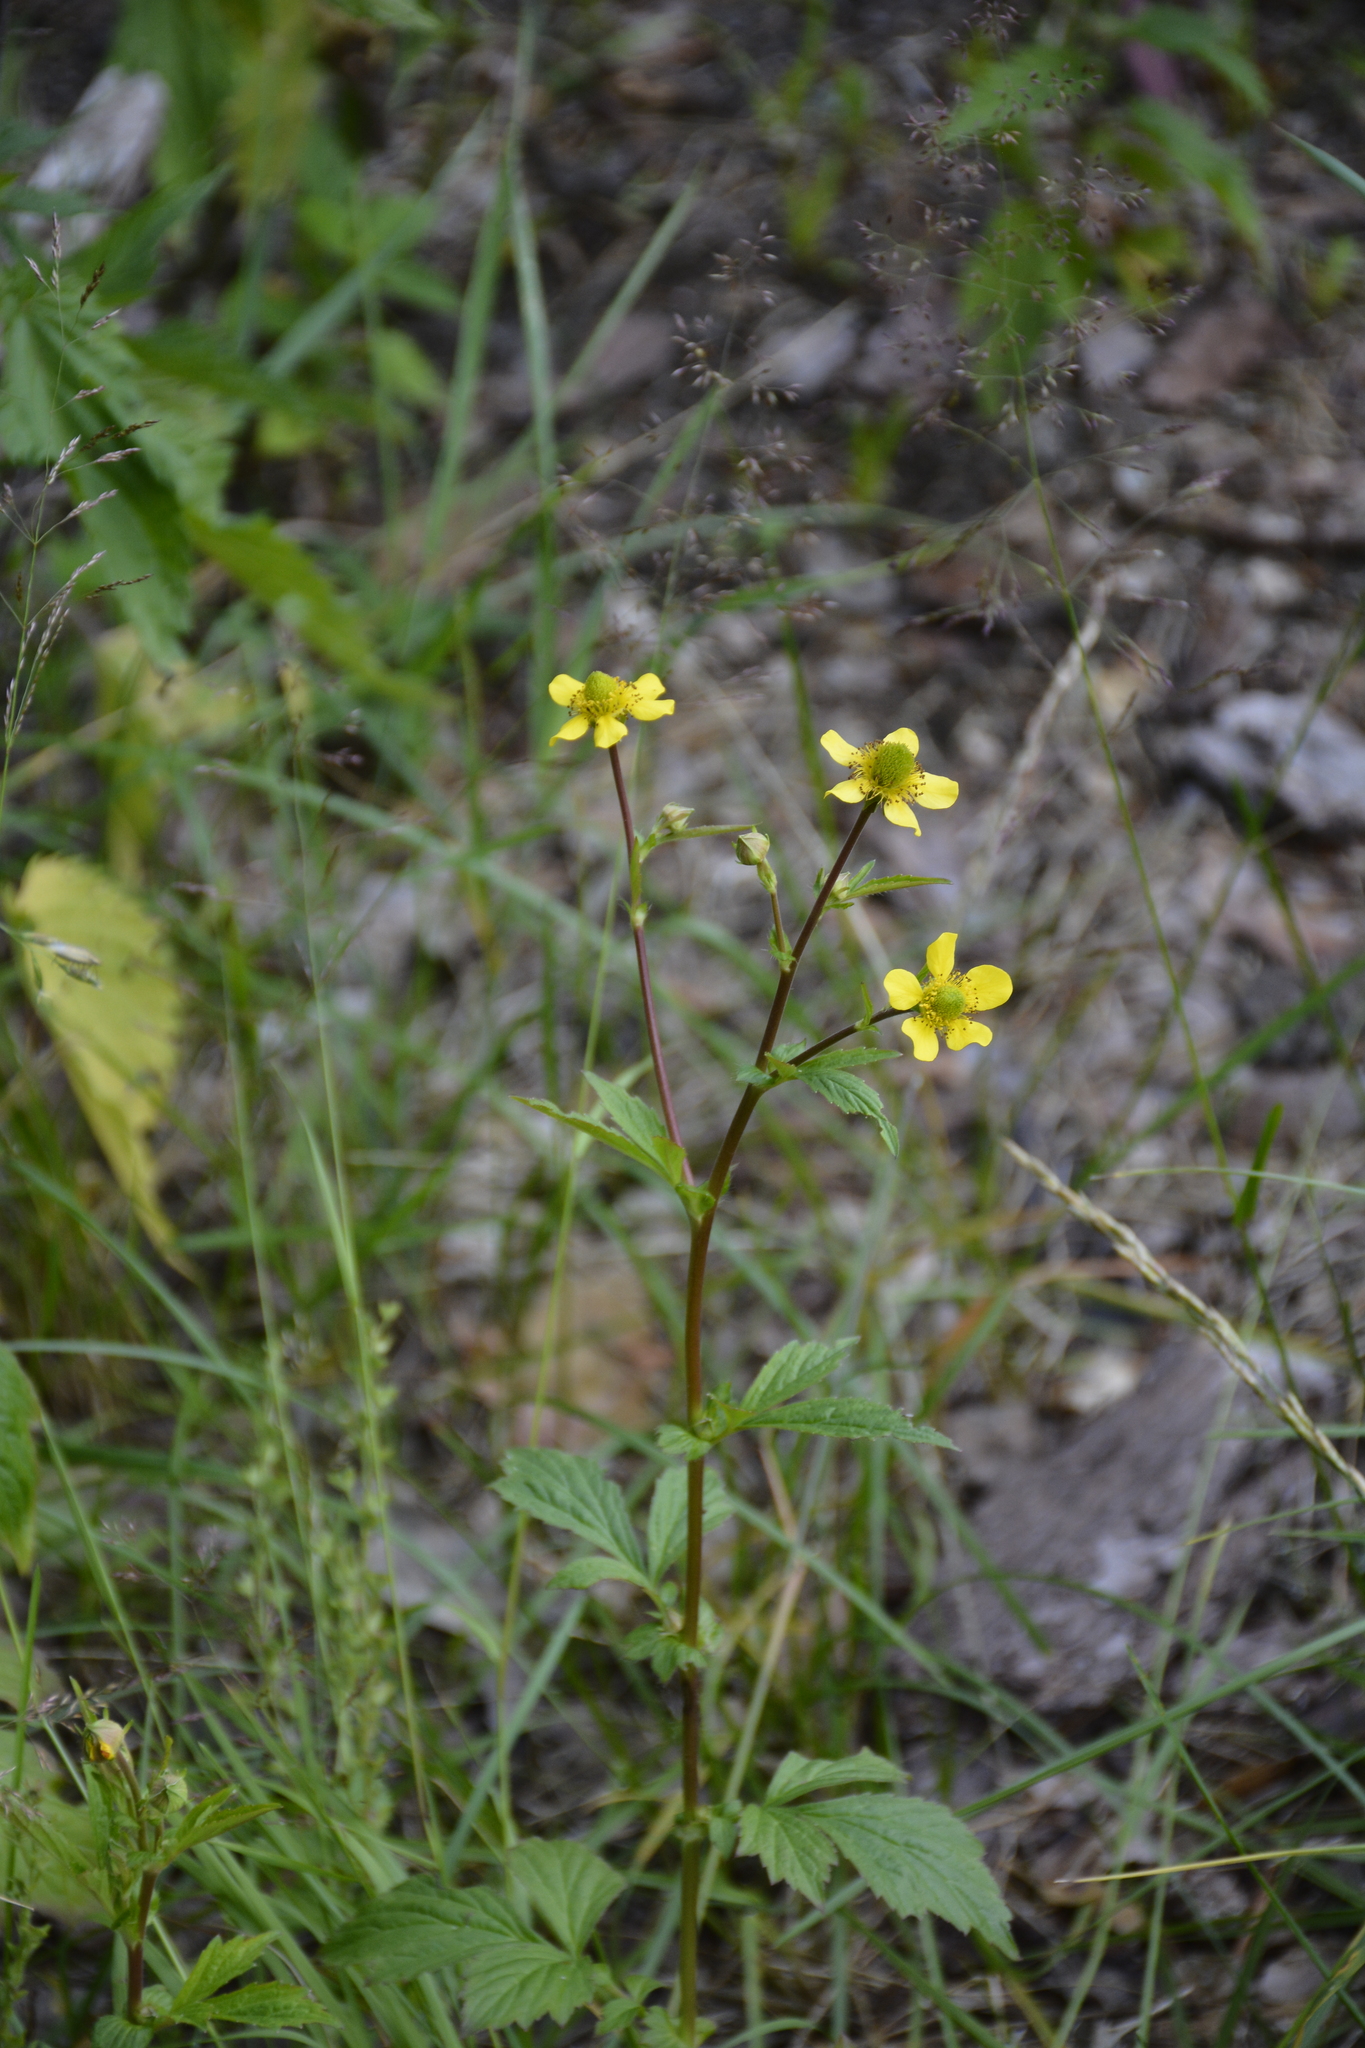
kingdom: Plantae
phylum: Tracheophyta
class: Magnoliopsida
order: Rosales
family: Rosaceae
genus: Geum
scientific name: Geum aleppicum
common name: Yellow avens
